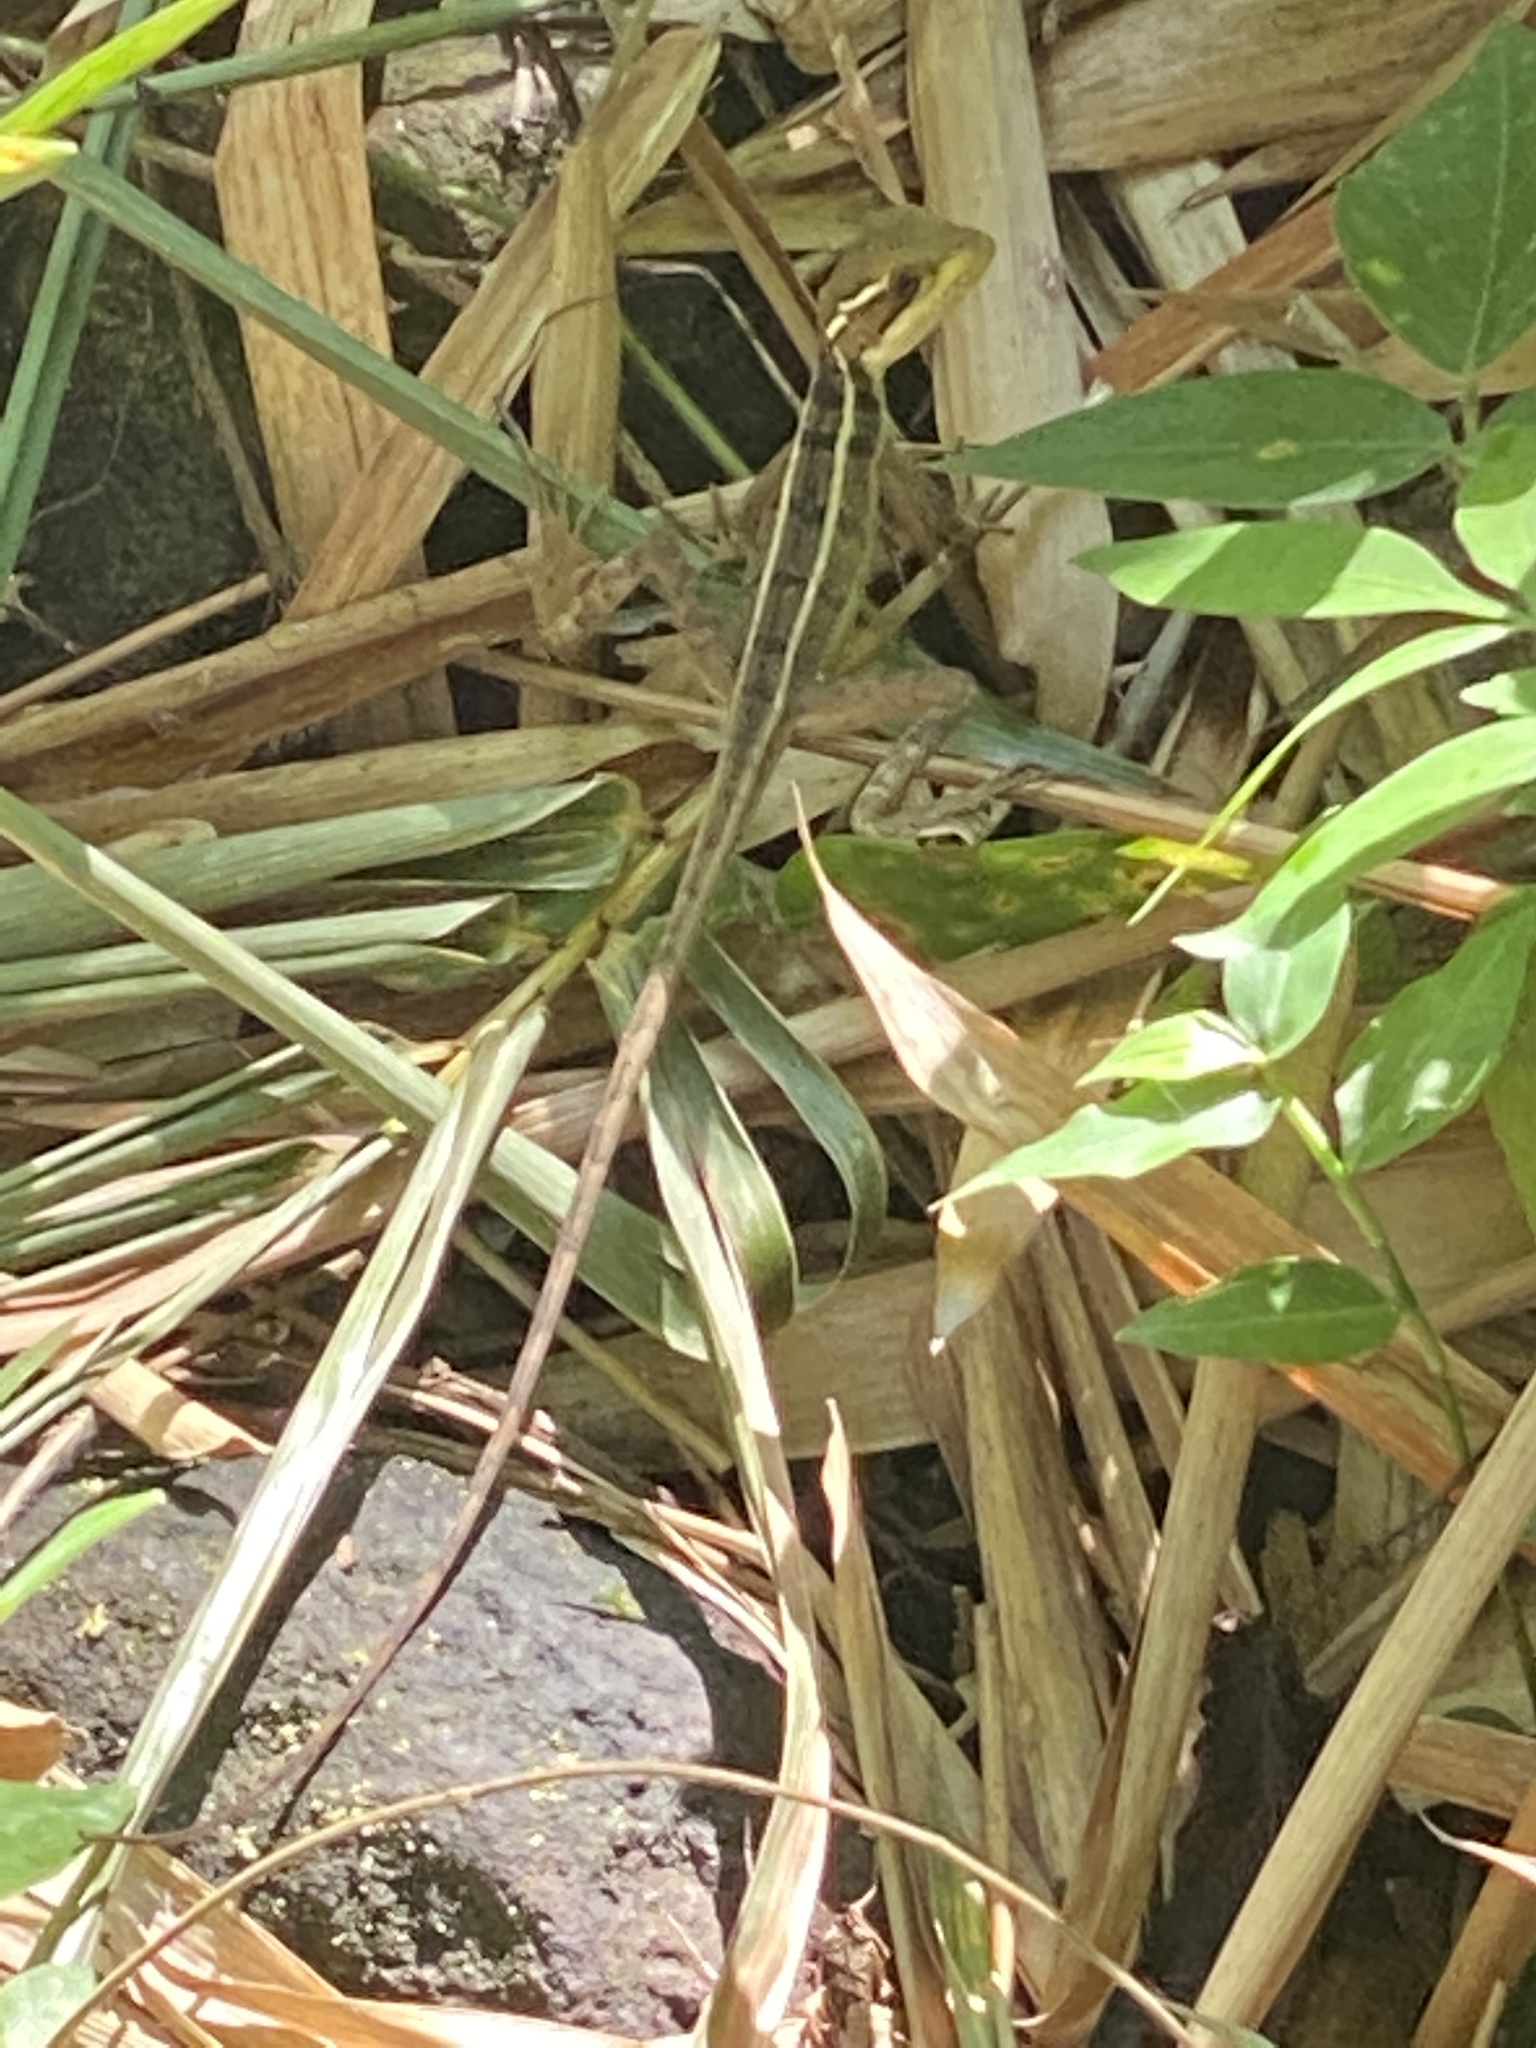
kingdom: Animalia
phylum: Chordata
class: Squamata
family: Corytophanidae
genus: Basiliscus
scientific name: Basiliscus vittatus
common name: Brown basilisk
